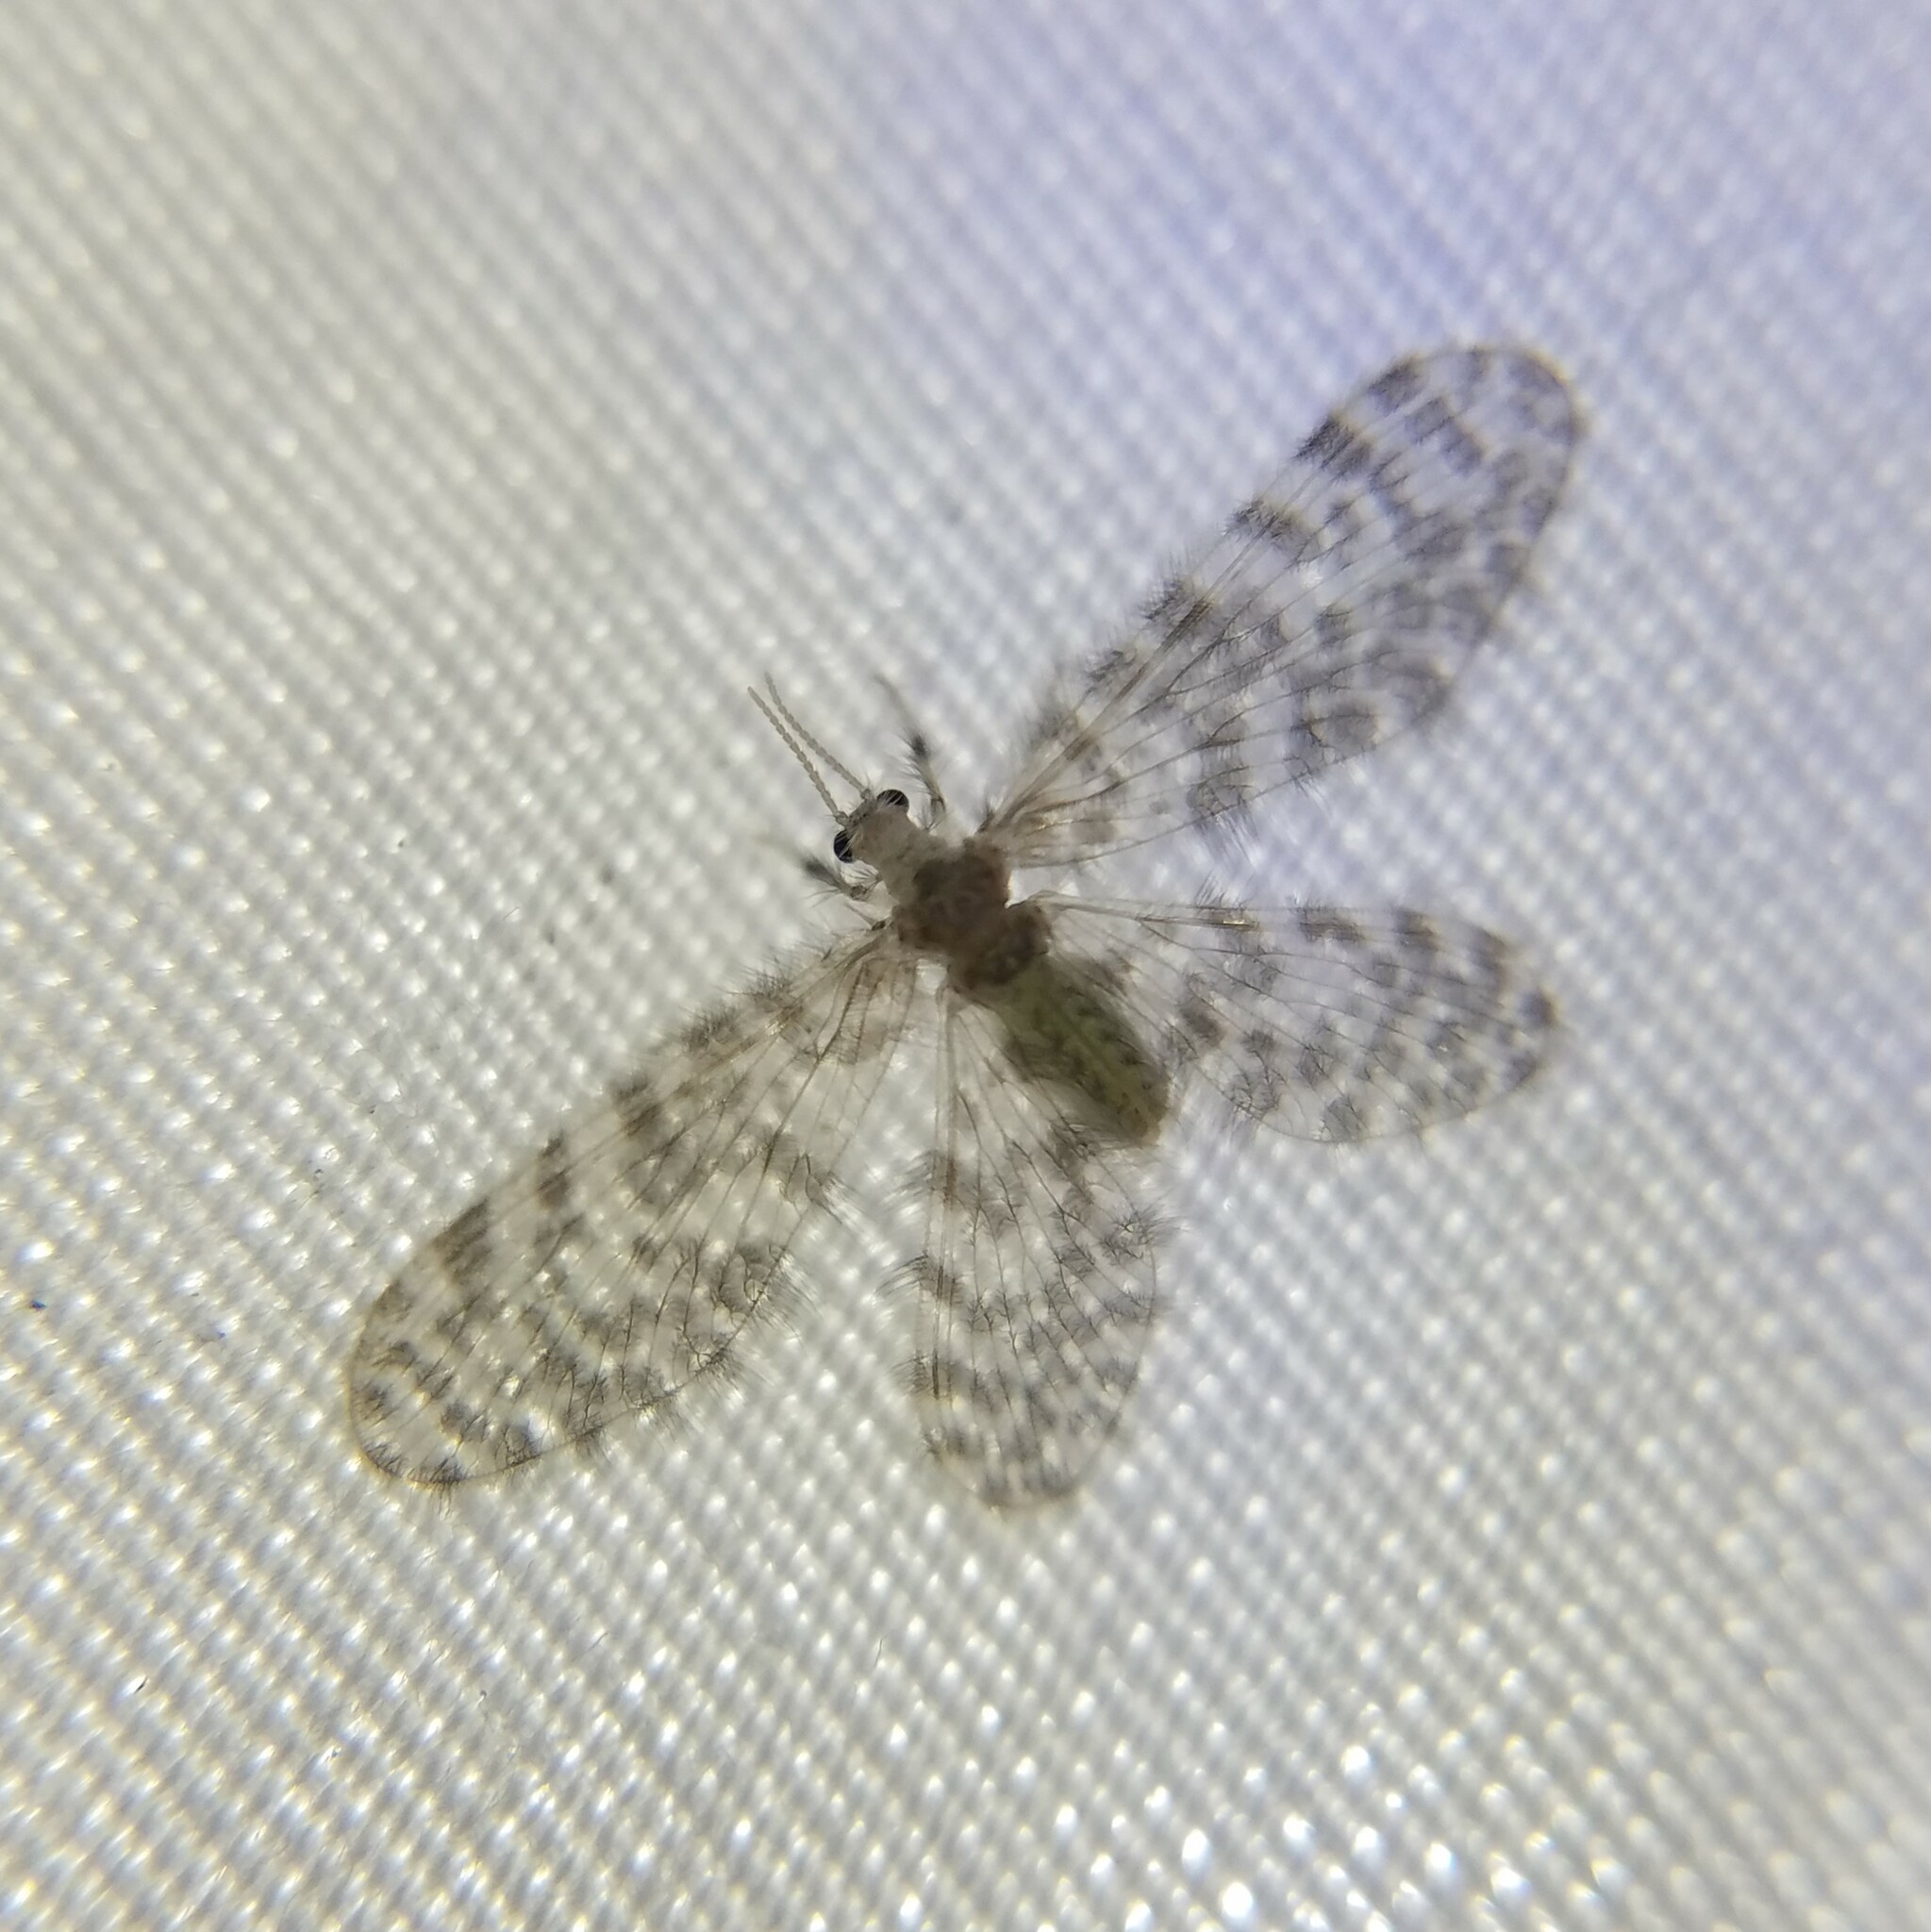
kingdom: Animalia
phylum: Arthropoda
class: Insecta
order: Neuroptera
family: Dilaridae
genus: Nallachius
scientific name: Nallachius americanus
